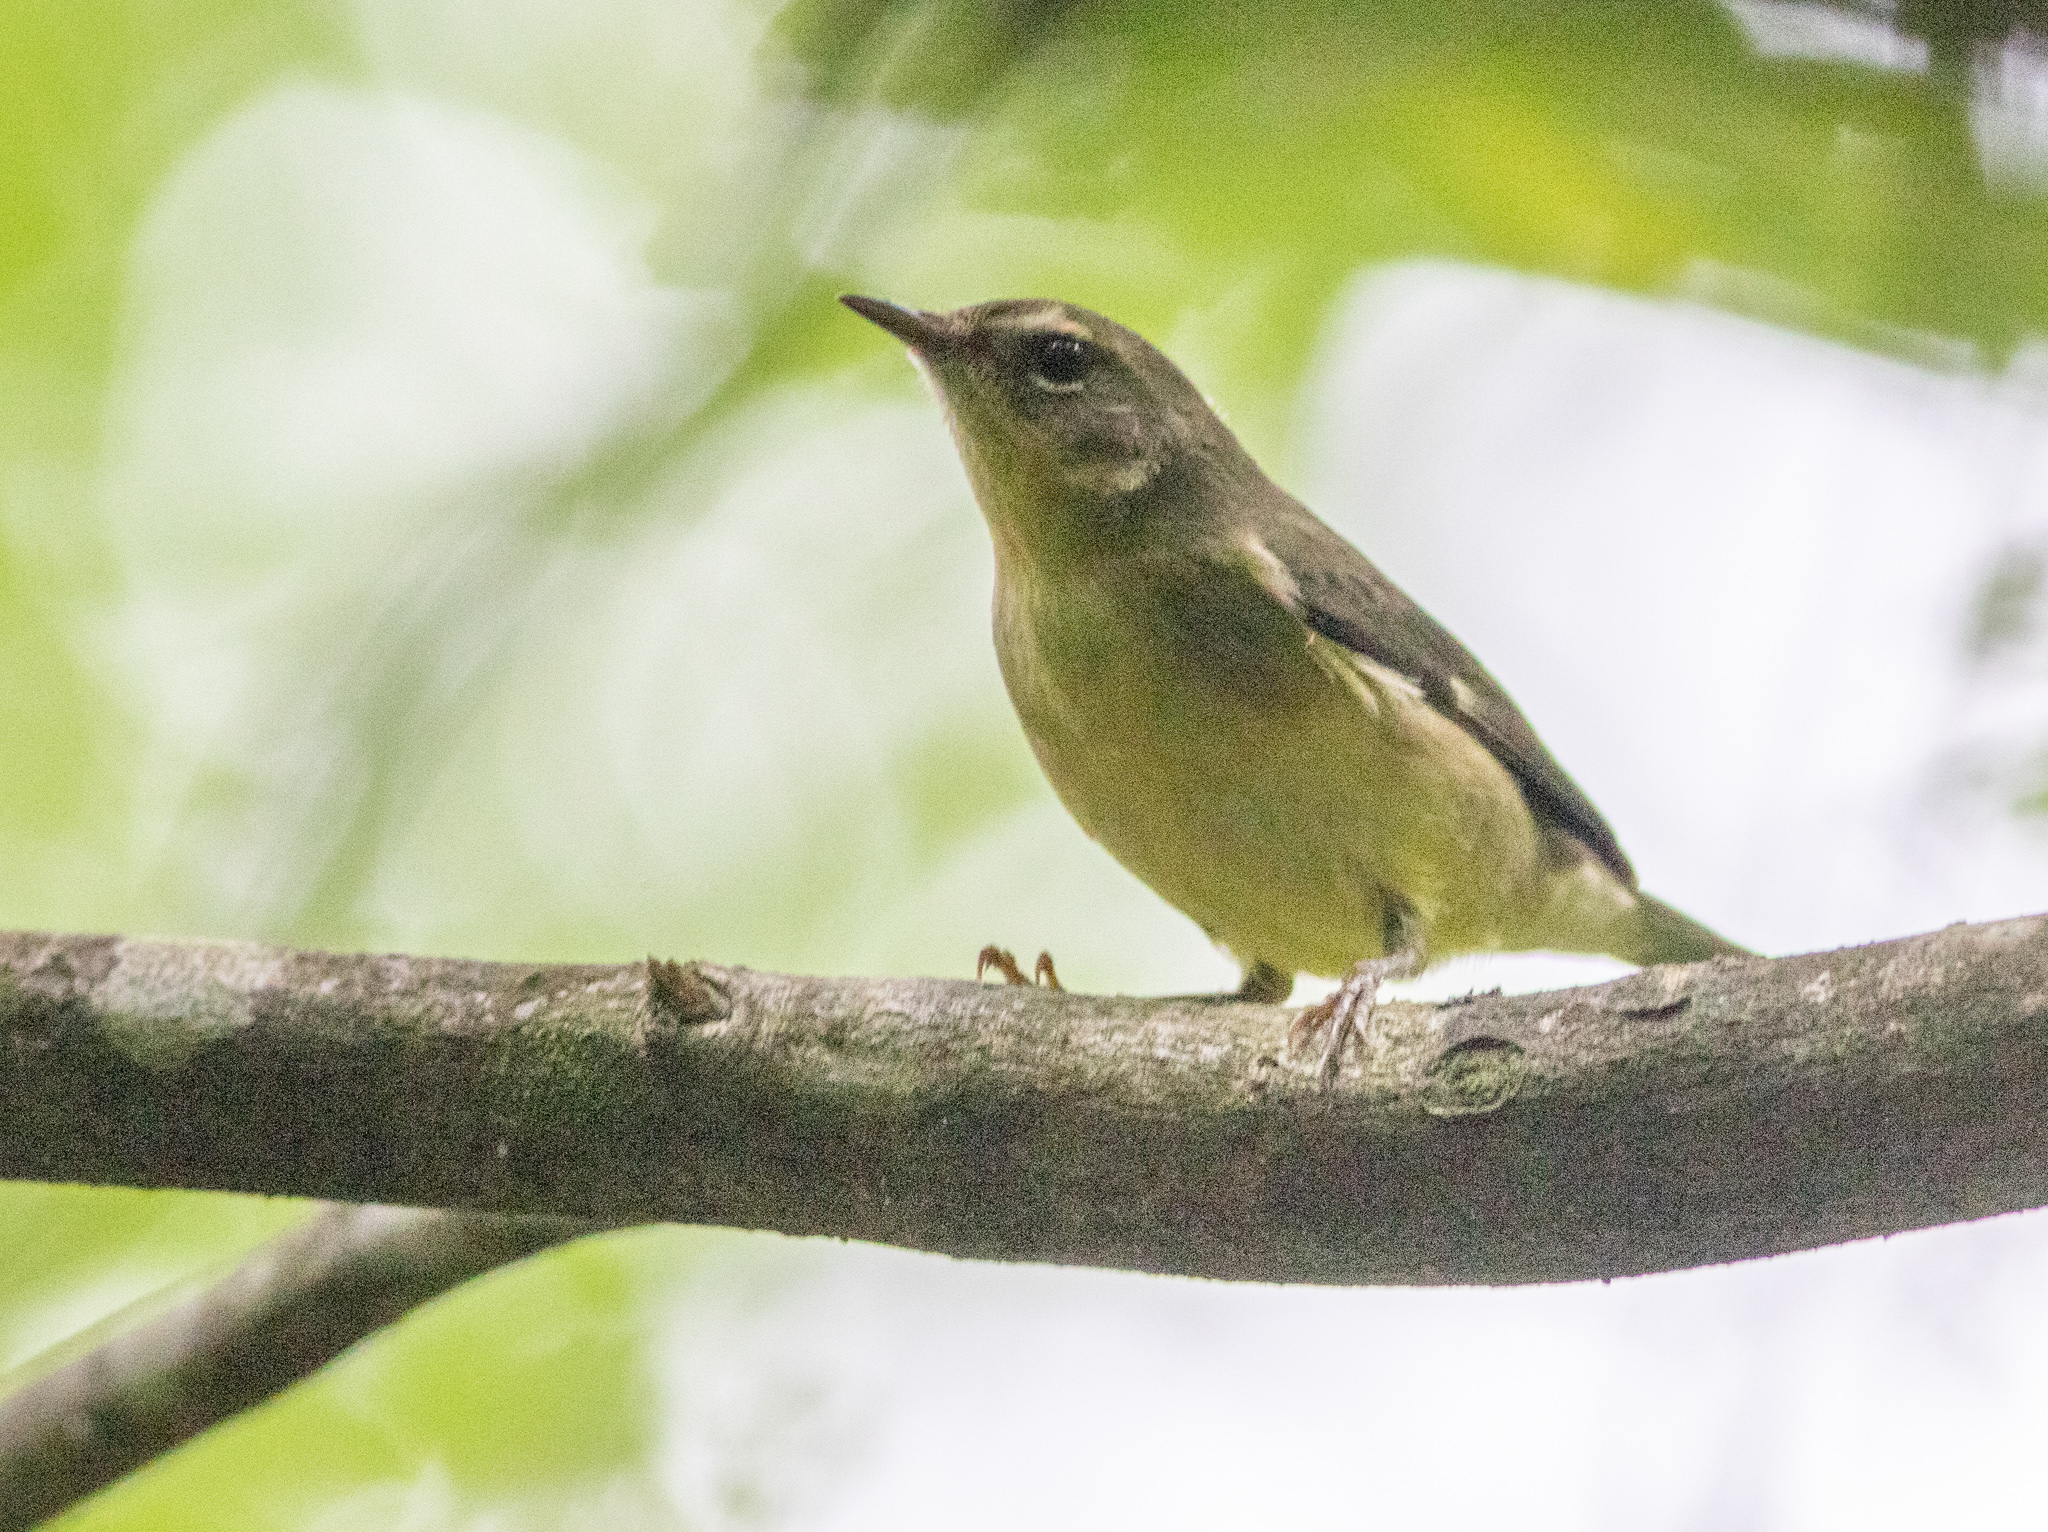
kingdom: Animalia
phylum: Chordata
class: Aves
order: Passeriformes
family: Parulidae
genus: Setophaga
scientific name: Setophaga caerulescens
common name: Black-throated blue warbler
